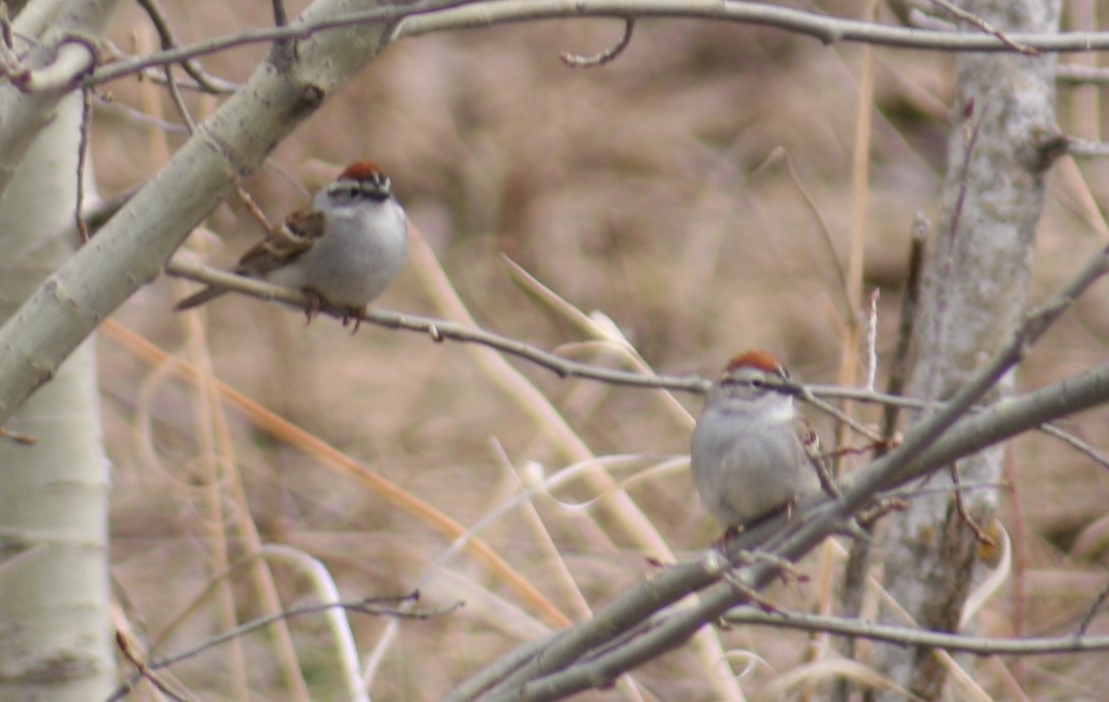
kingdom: Animalia
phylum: Chordata
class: Aves
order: Passeriformes
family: Passerellidae
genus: Spizella
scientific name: Spizella passerina
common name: Chipping sparrow
